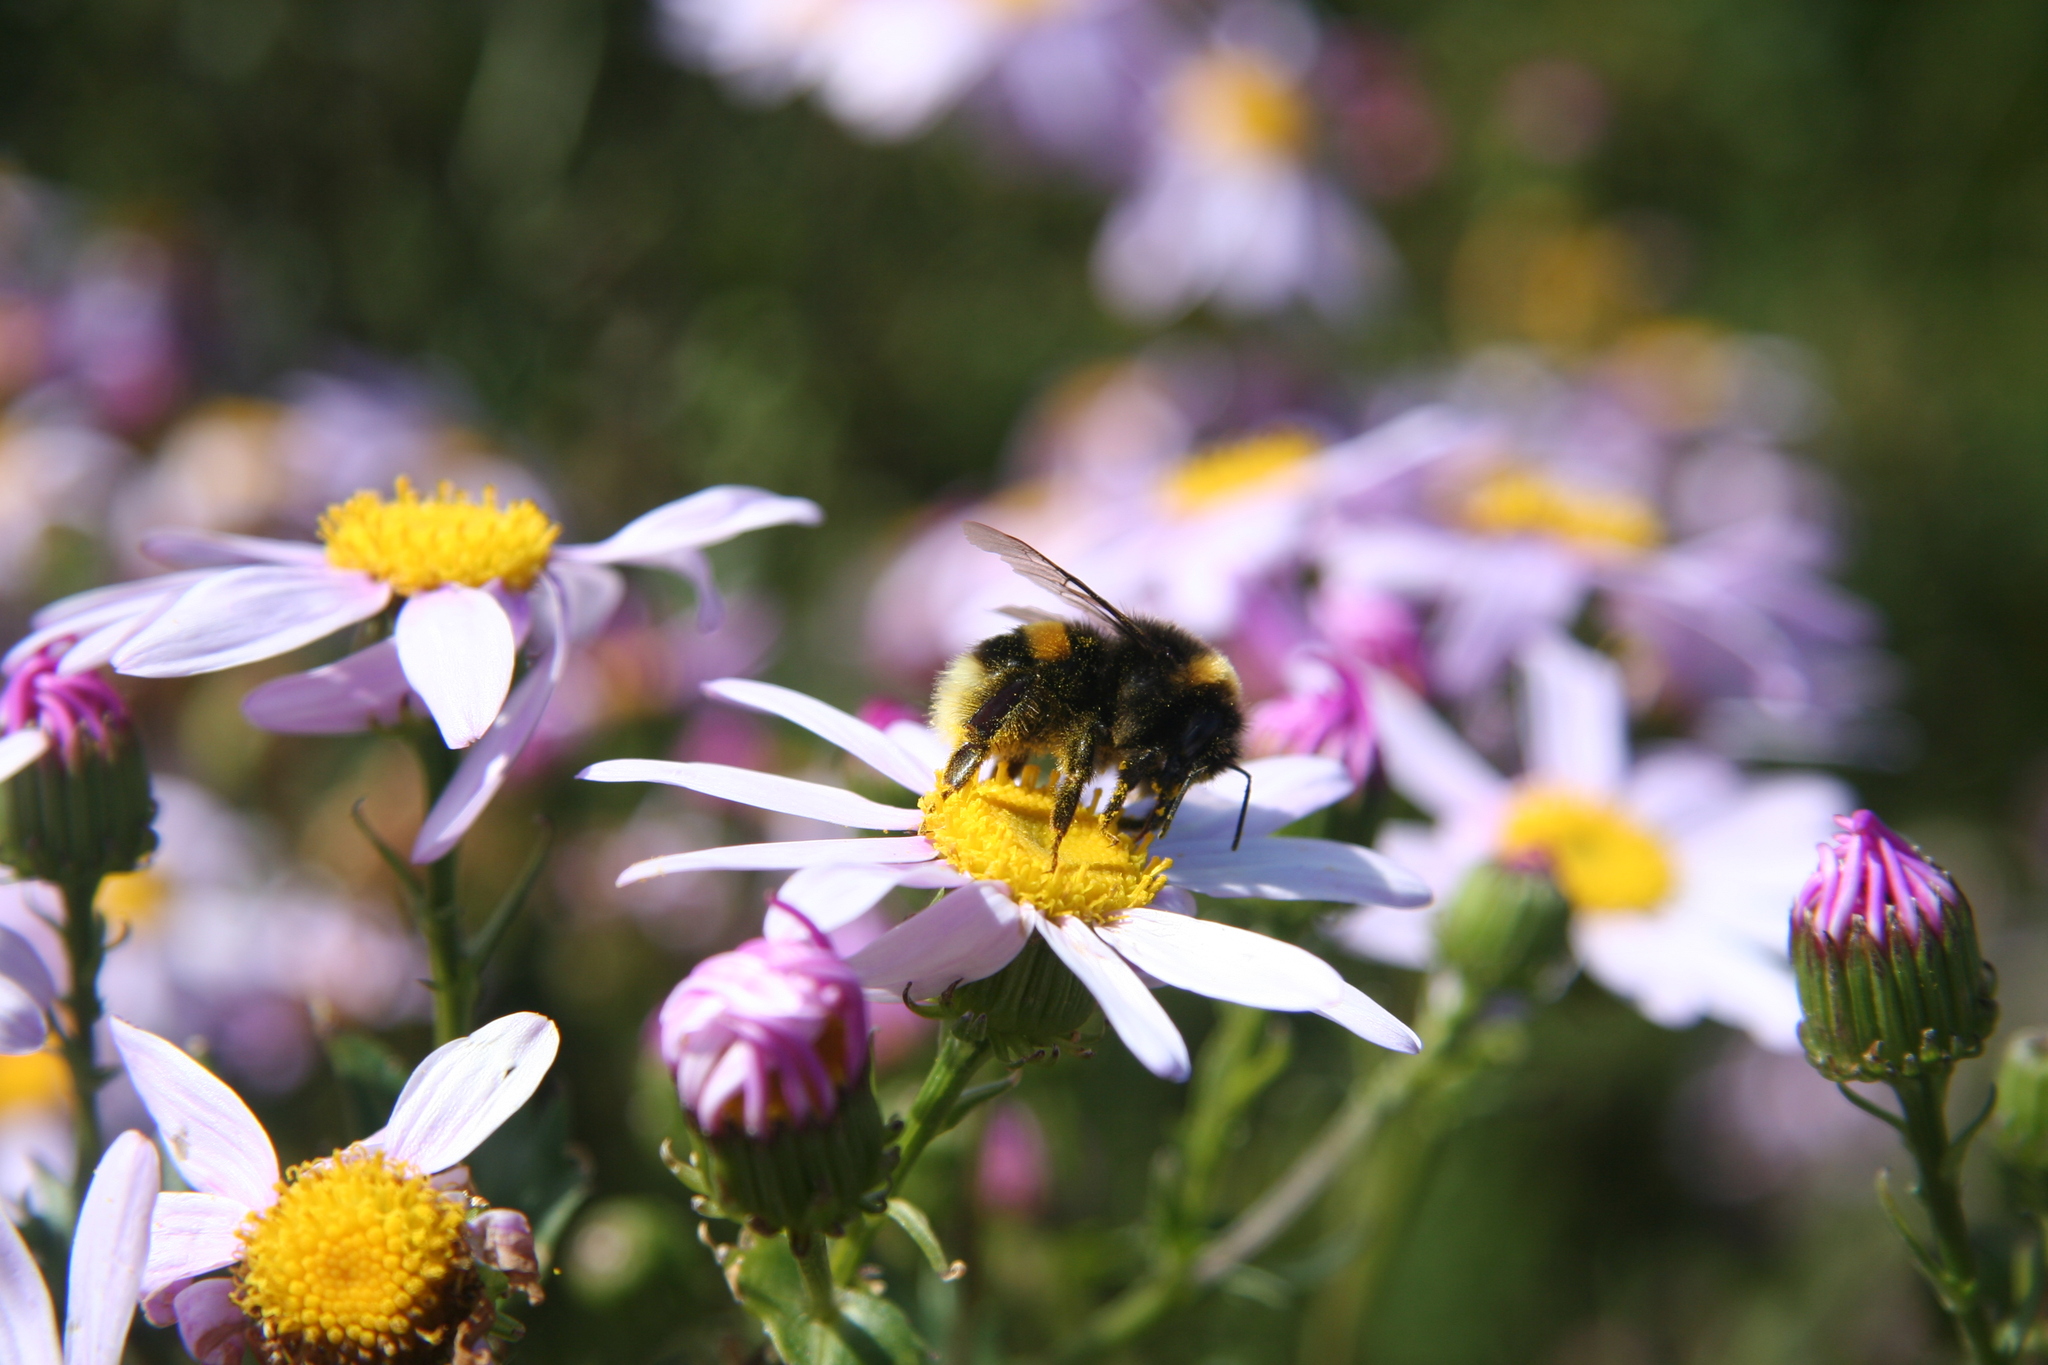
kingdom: Animalia
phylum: Arthropoda
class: Insecta
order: Hymenoptera
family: Apidae
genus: Bombus
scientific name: Bombus terrestris
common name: Buff-tailed bumblebee
